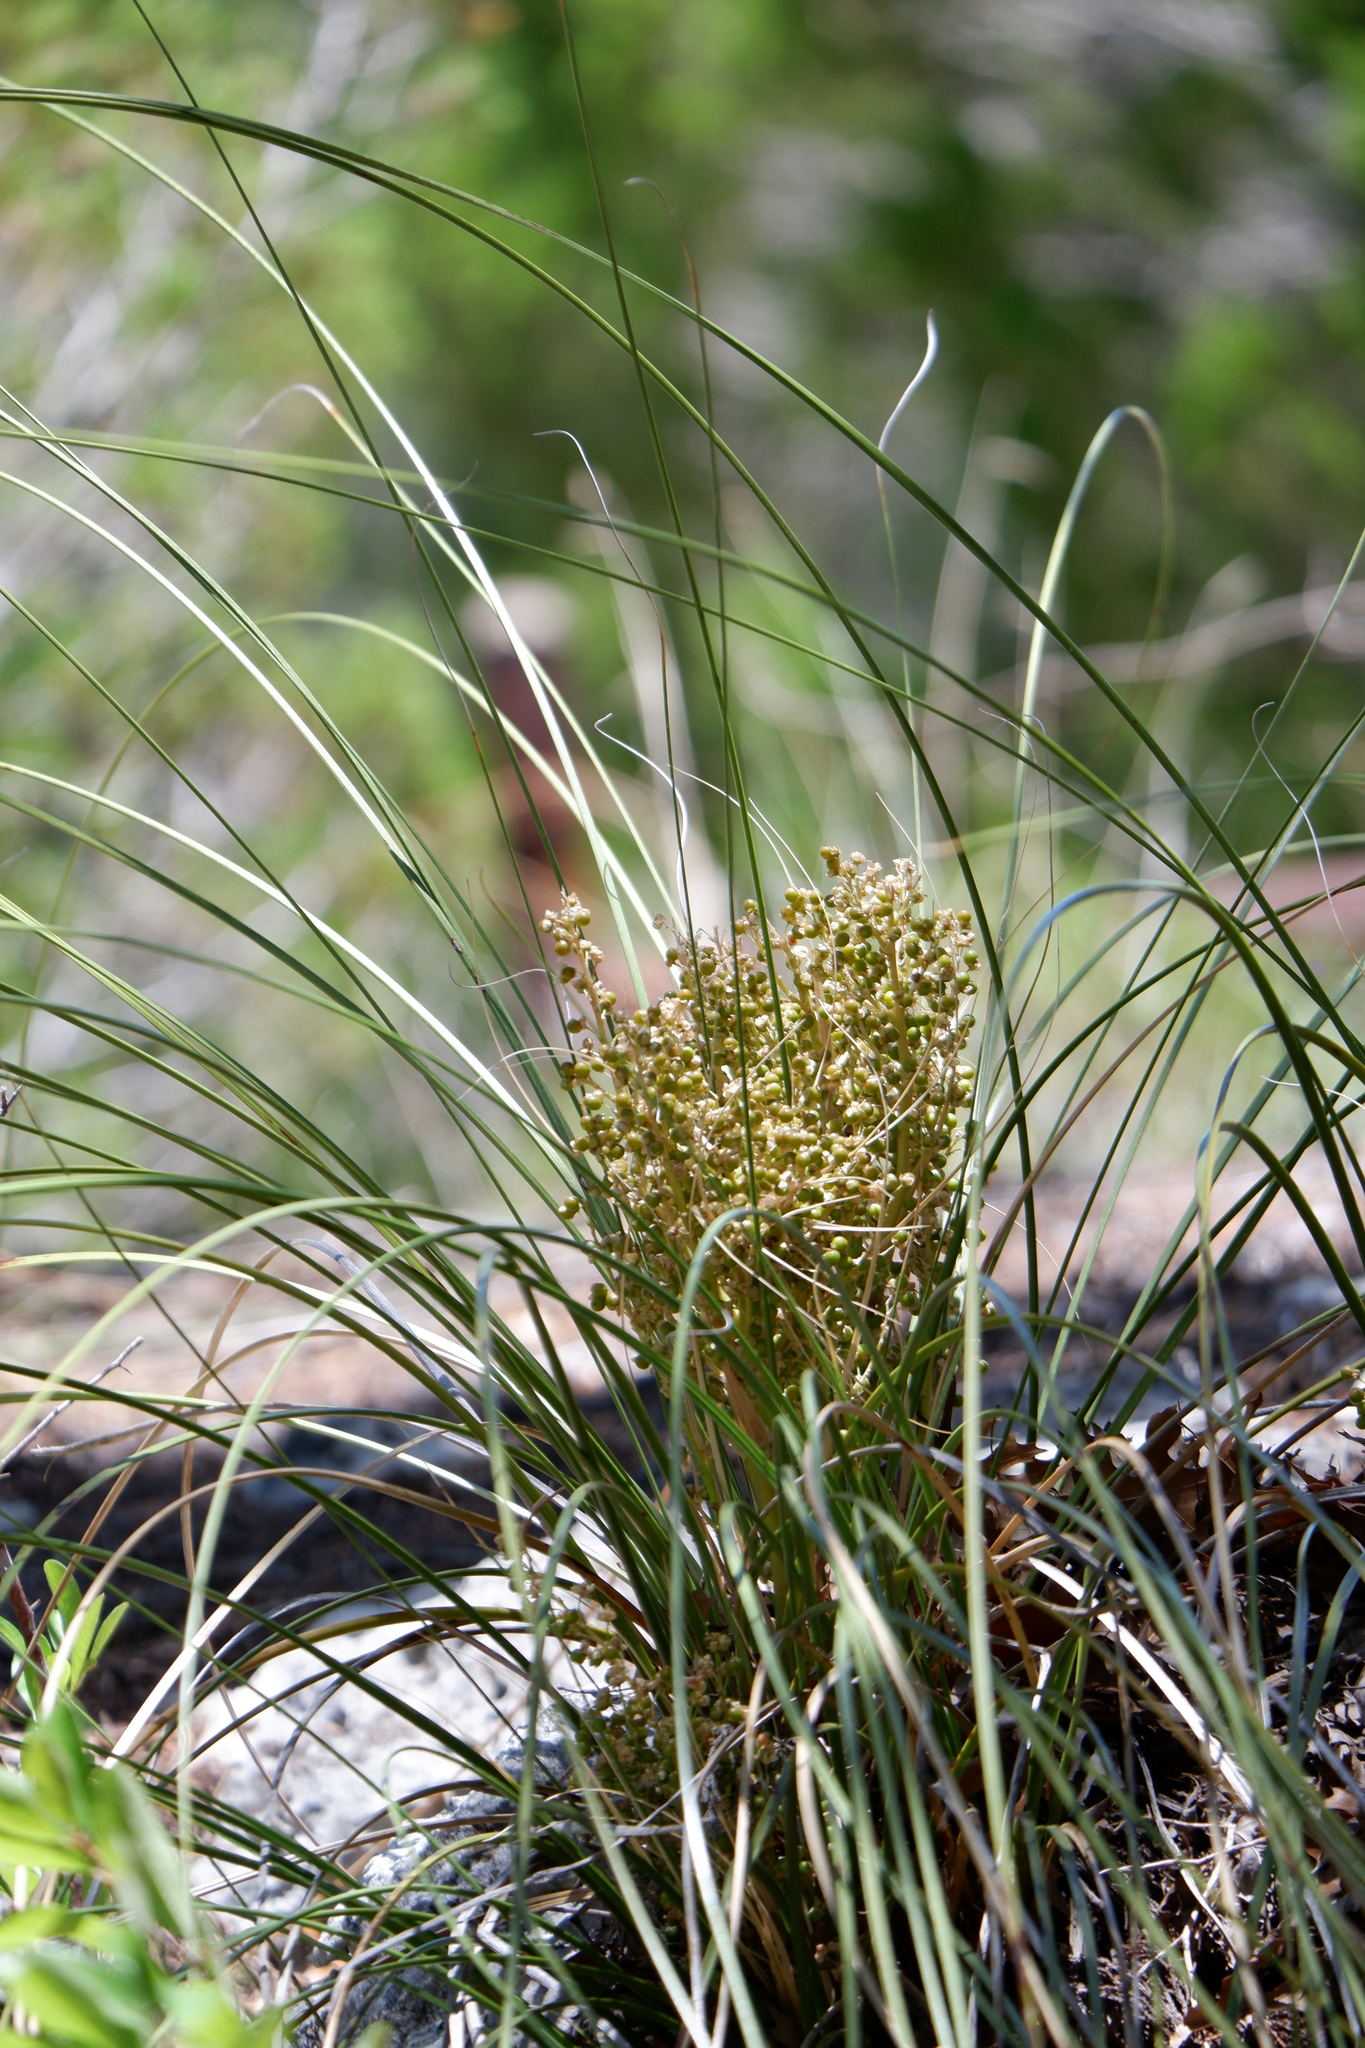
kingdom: Plantae
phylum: Tracheophyta
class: Liliopsida
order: Asparagales
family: Asparagaceae
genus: Nolina
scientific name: Nolina texana
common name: Texas sacahuiste
